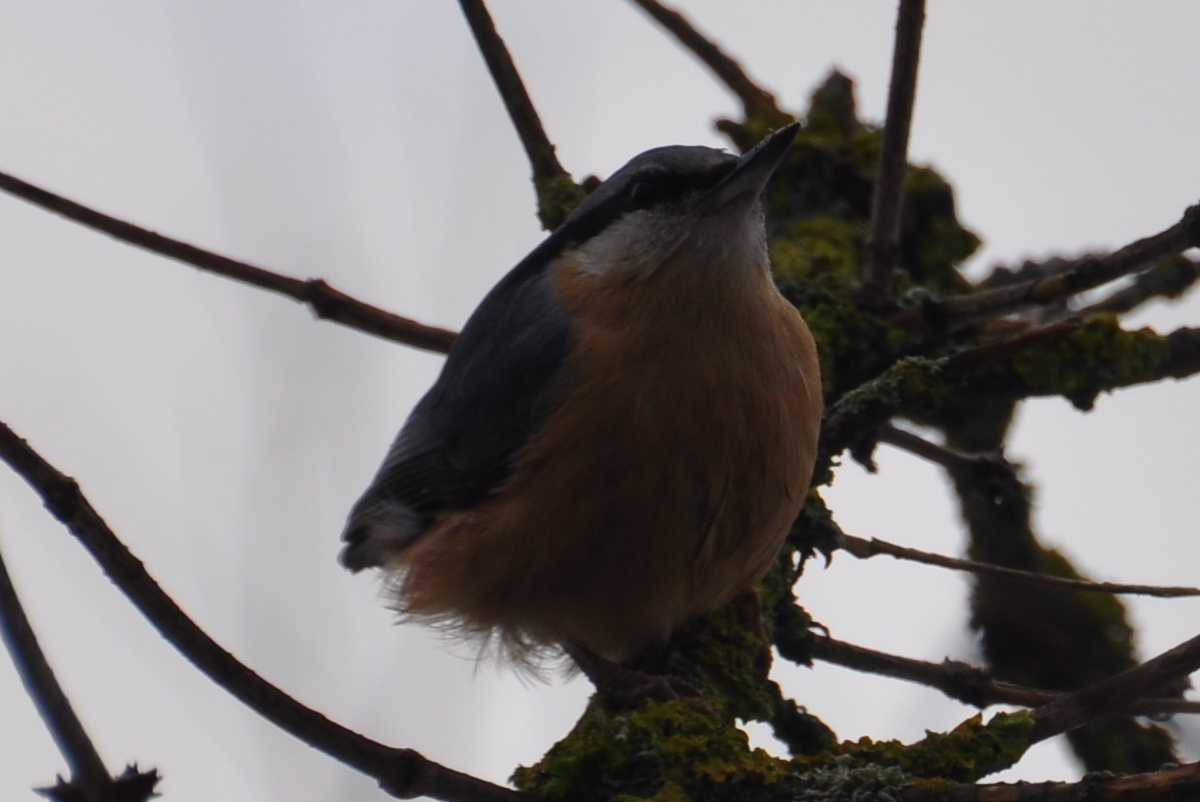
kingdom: Animalia
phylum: Chordata
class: Aves
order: Passeriformes
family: Sittidae
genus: Sitta
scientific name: Sitta europaea
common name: Eurasian nuthatch
